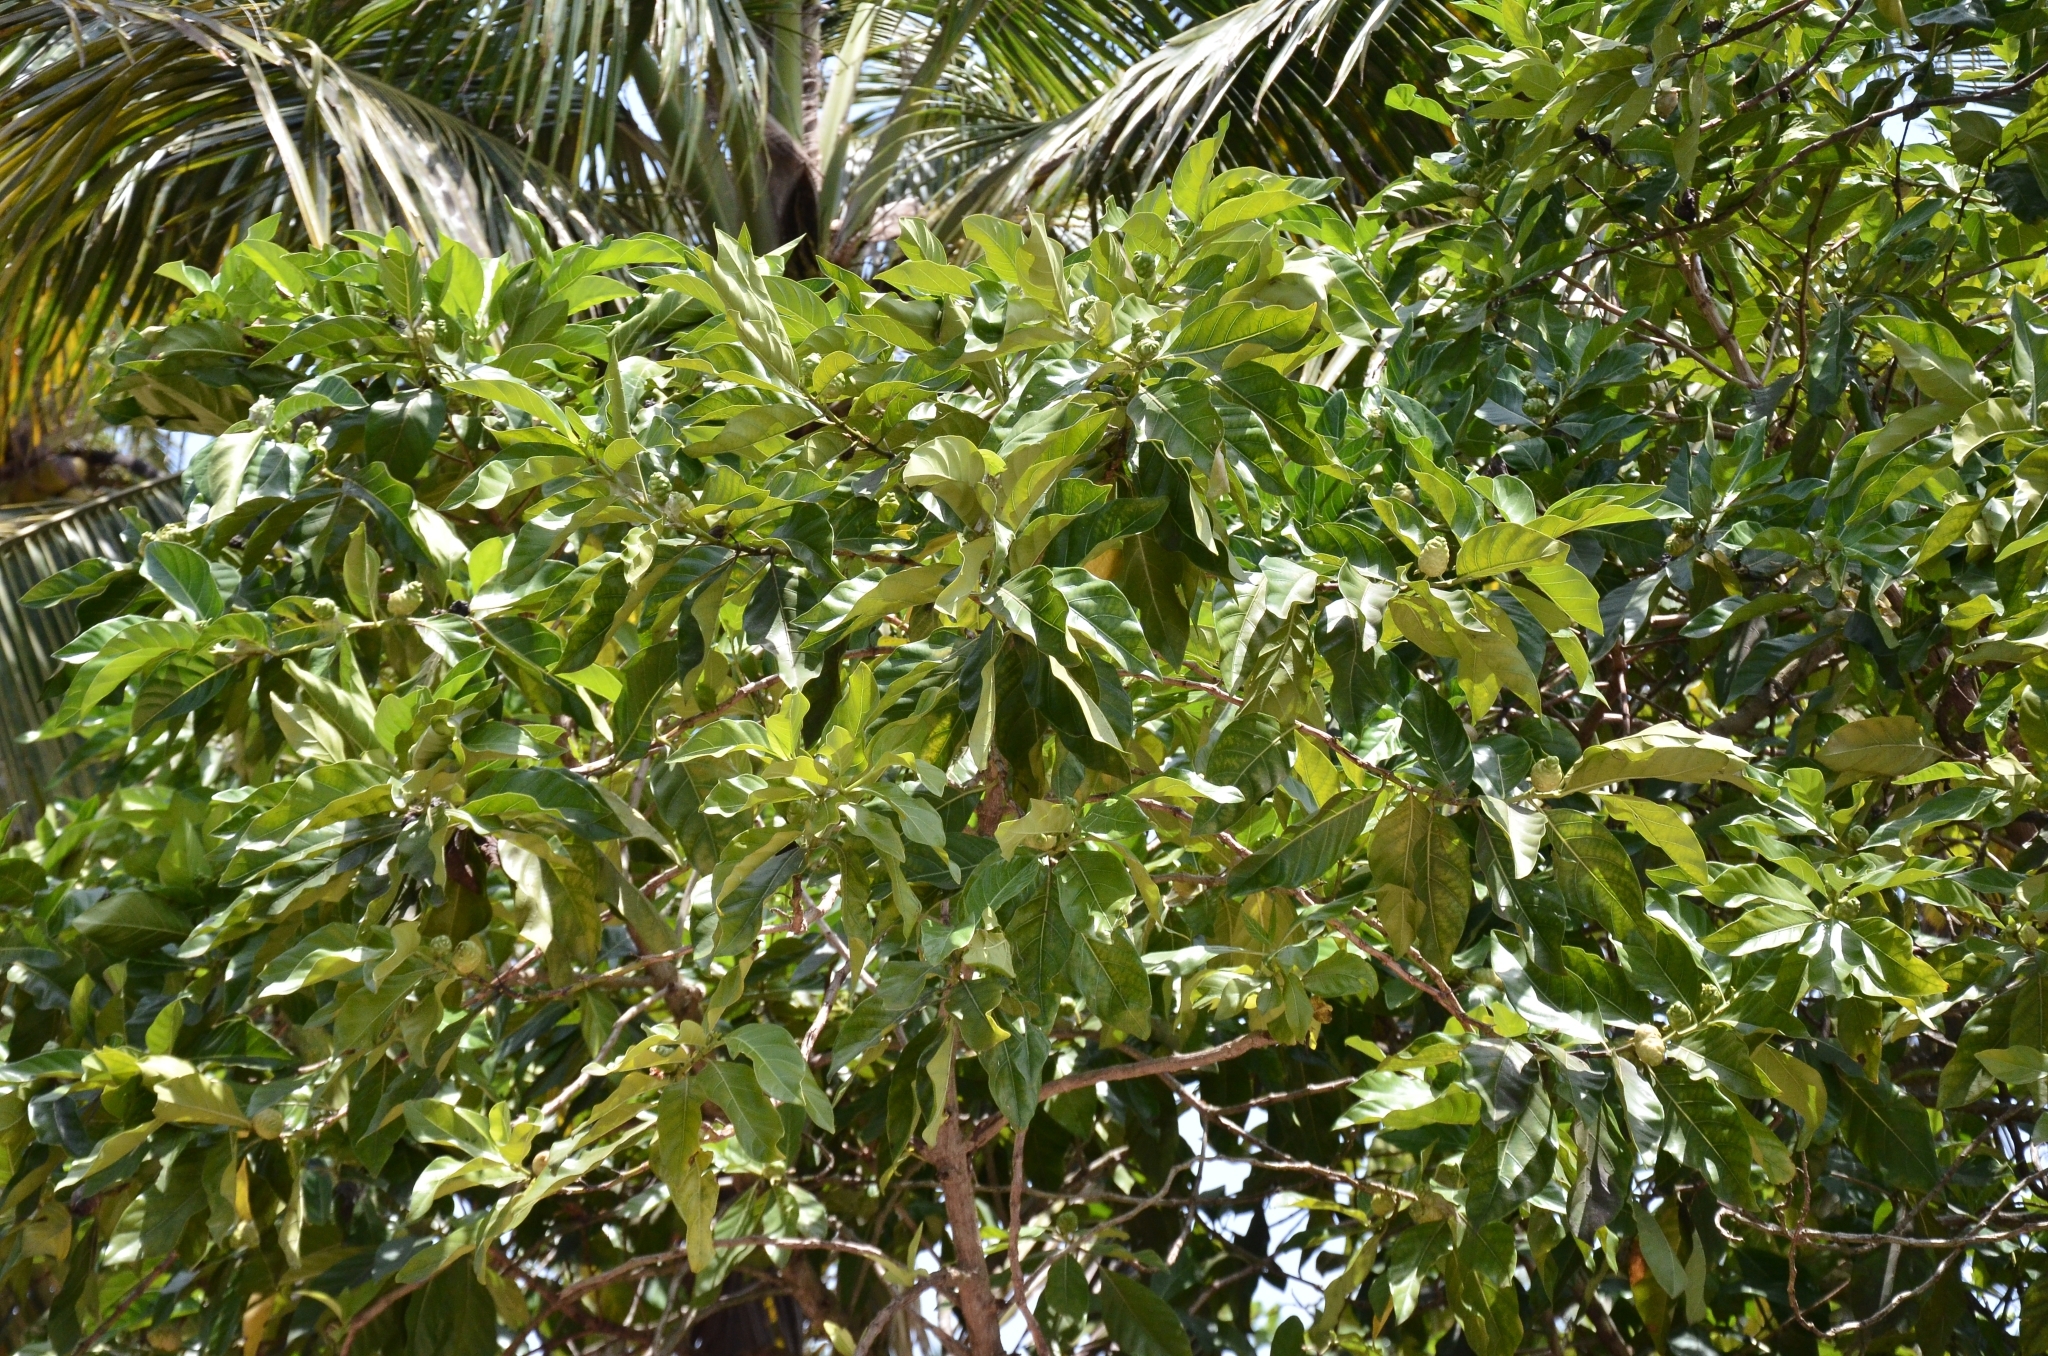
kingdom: Plantae
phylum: Tracheophyta
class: Magnoliopsida
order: Gentianales
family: Rubiaceae
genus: Morinda
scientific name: Morinda citrifolia
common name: Indian-mulberry
